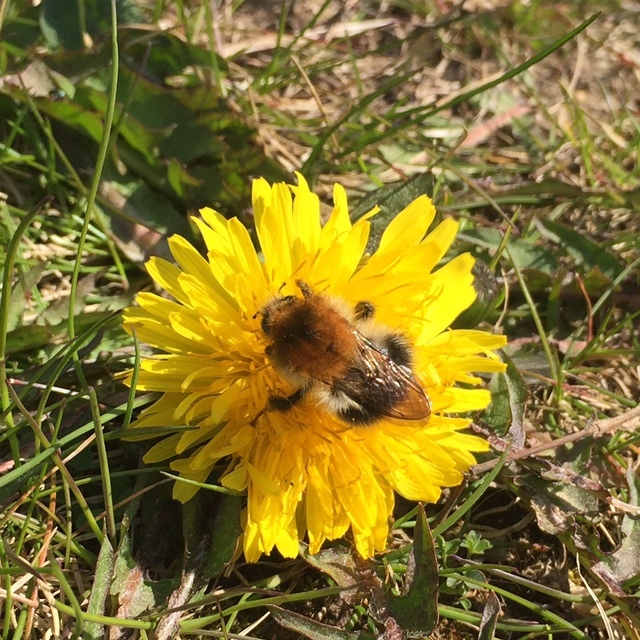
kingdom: Animalia
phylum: Arthropoda
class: Insecta
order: Hymenoptera
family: Apidae
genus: Bombus
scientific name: Bombus pascuorum
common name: Common carder bee
